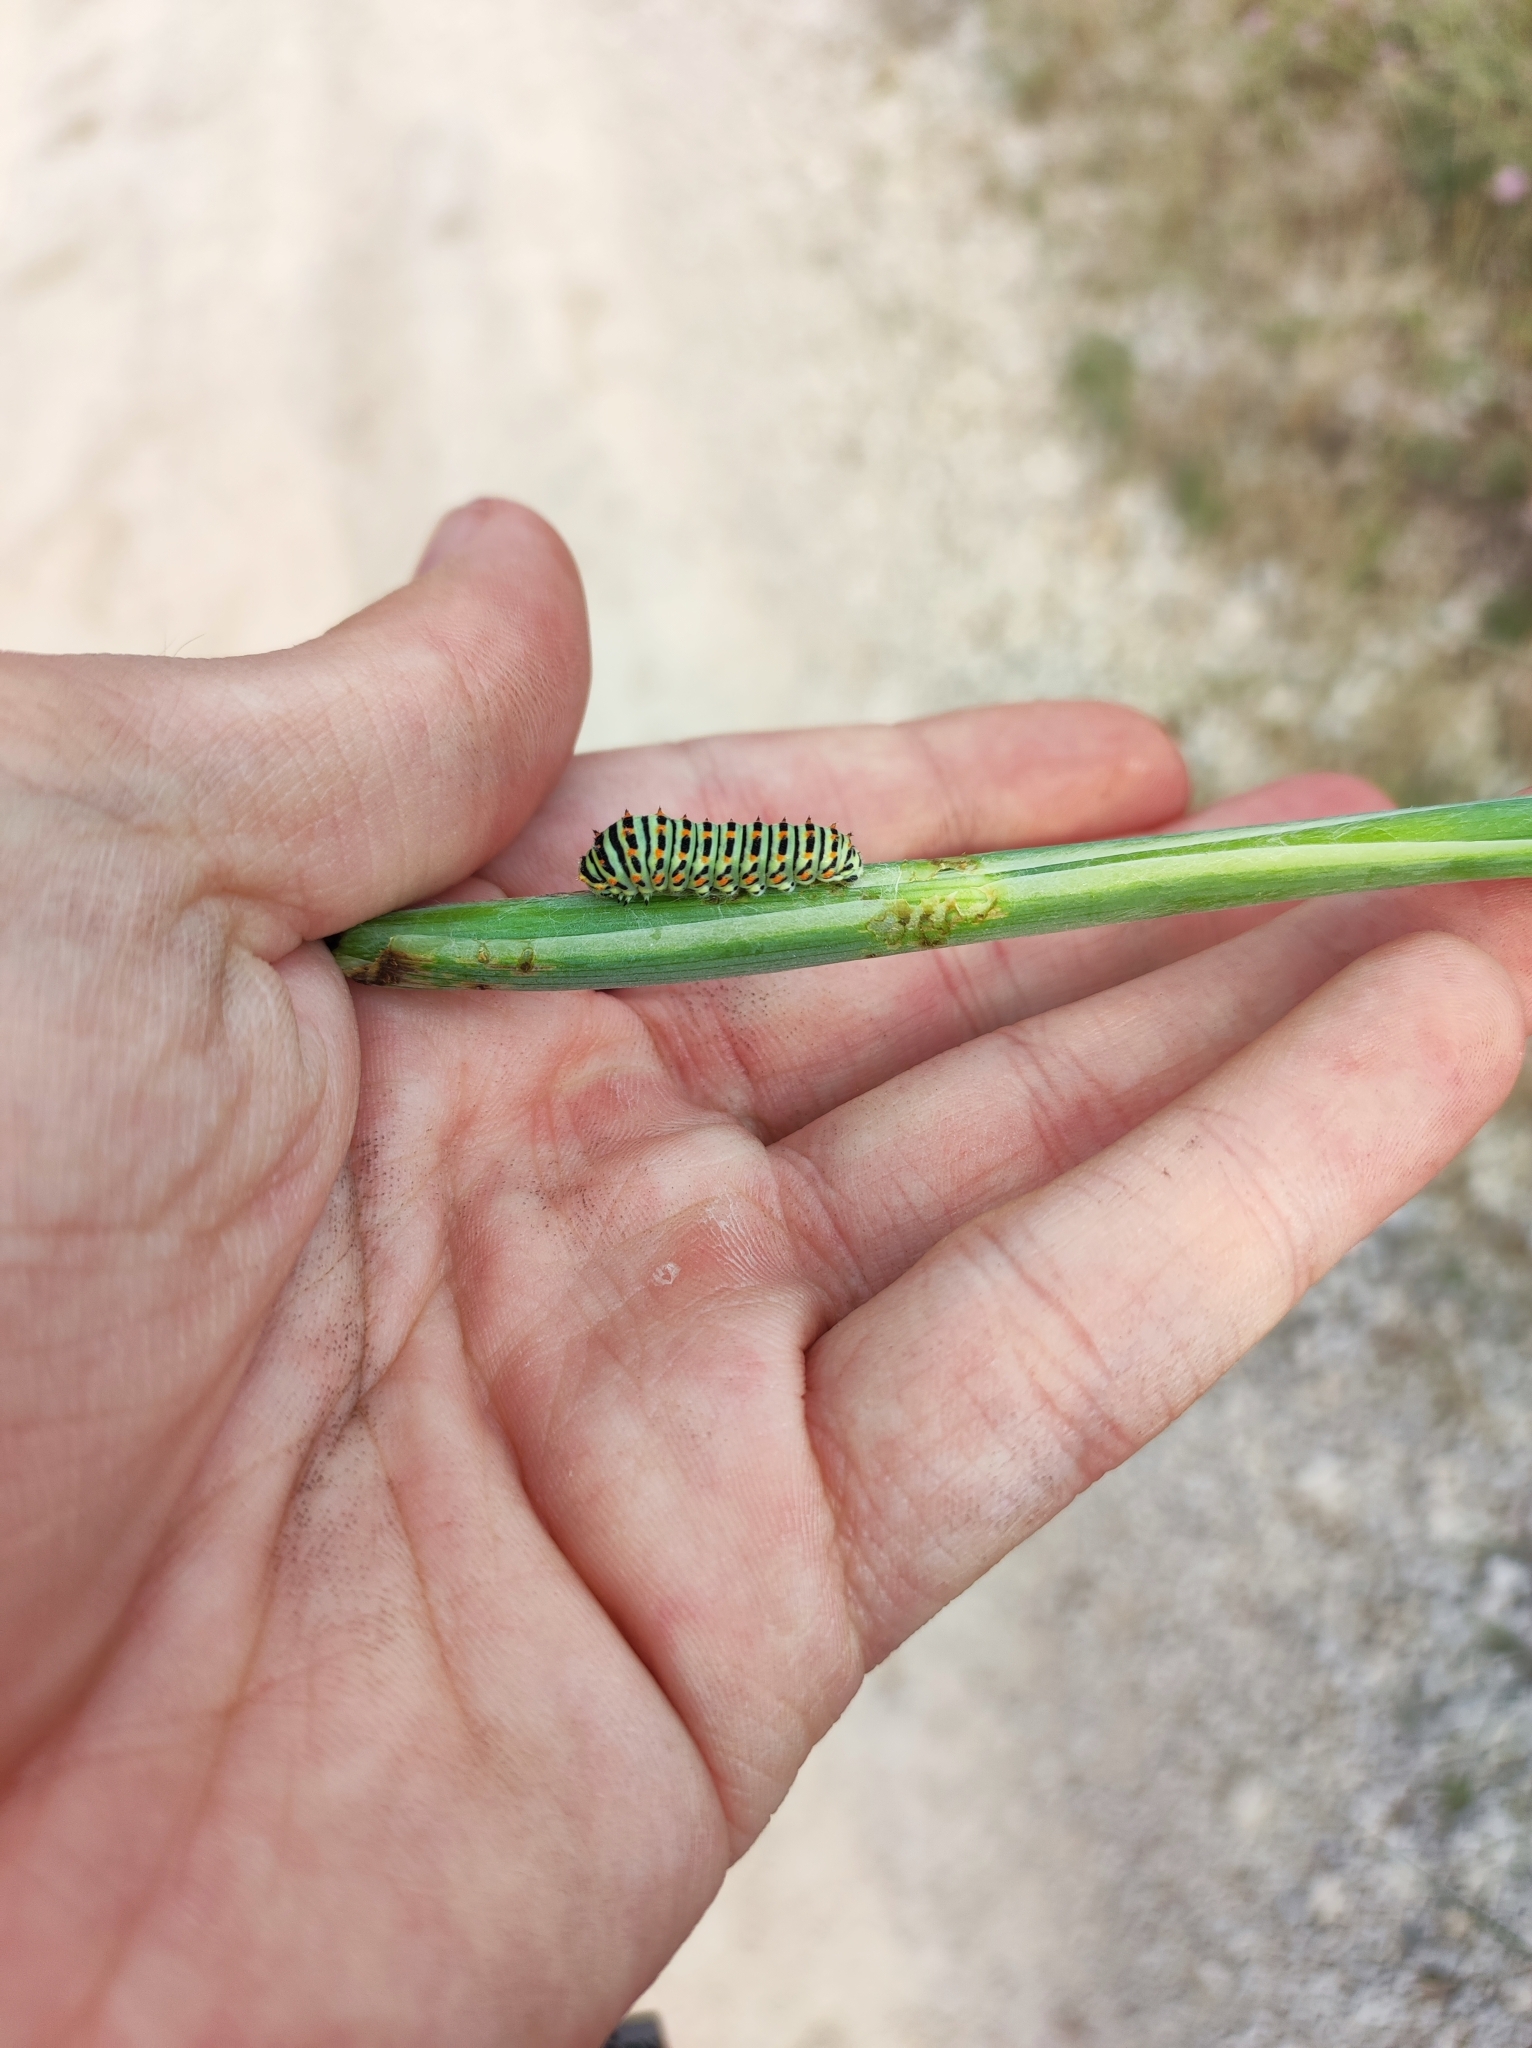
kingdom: Animalia
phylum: Arthropoda
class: Insecta
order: Lepidoptera
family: Papilionidae
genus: Papilio
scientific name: Papilio machaon
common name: Swallowtail
